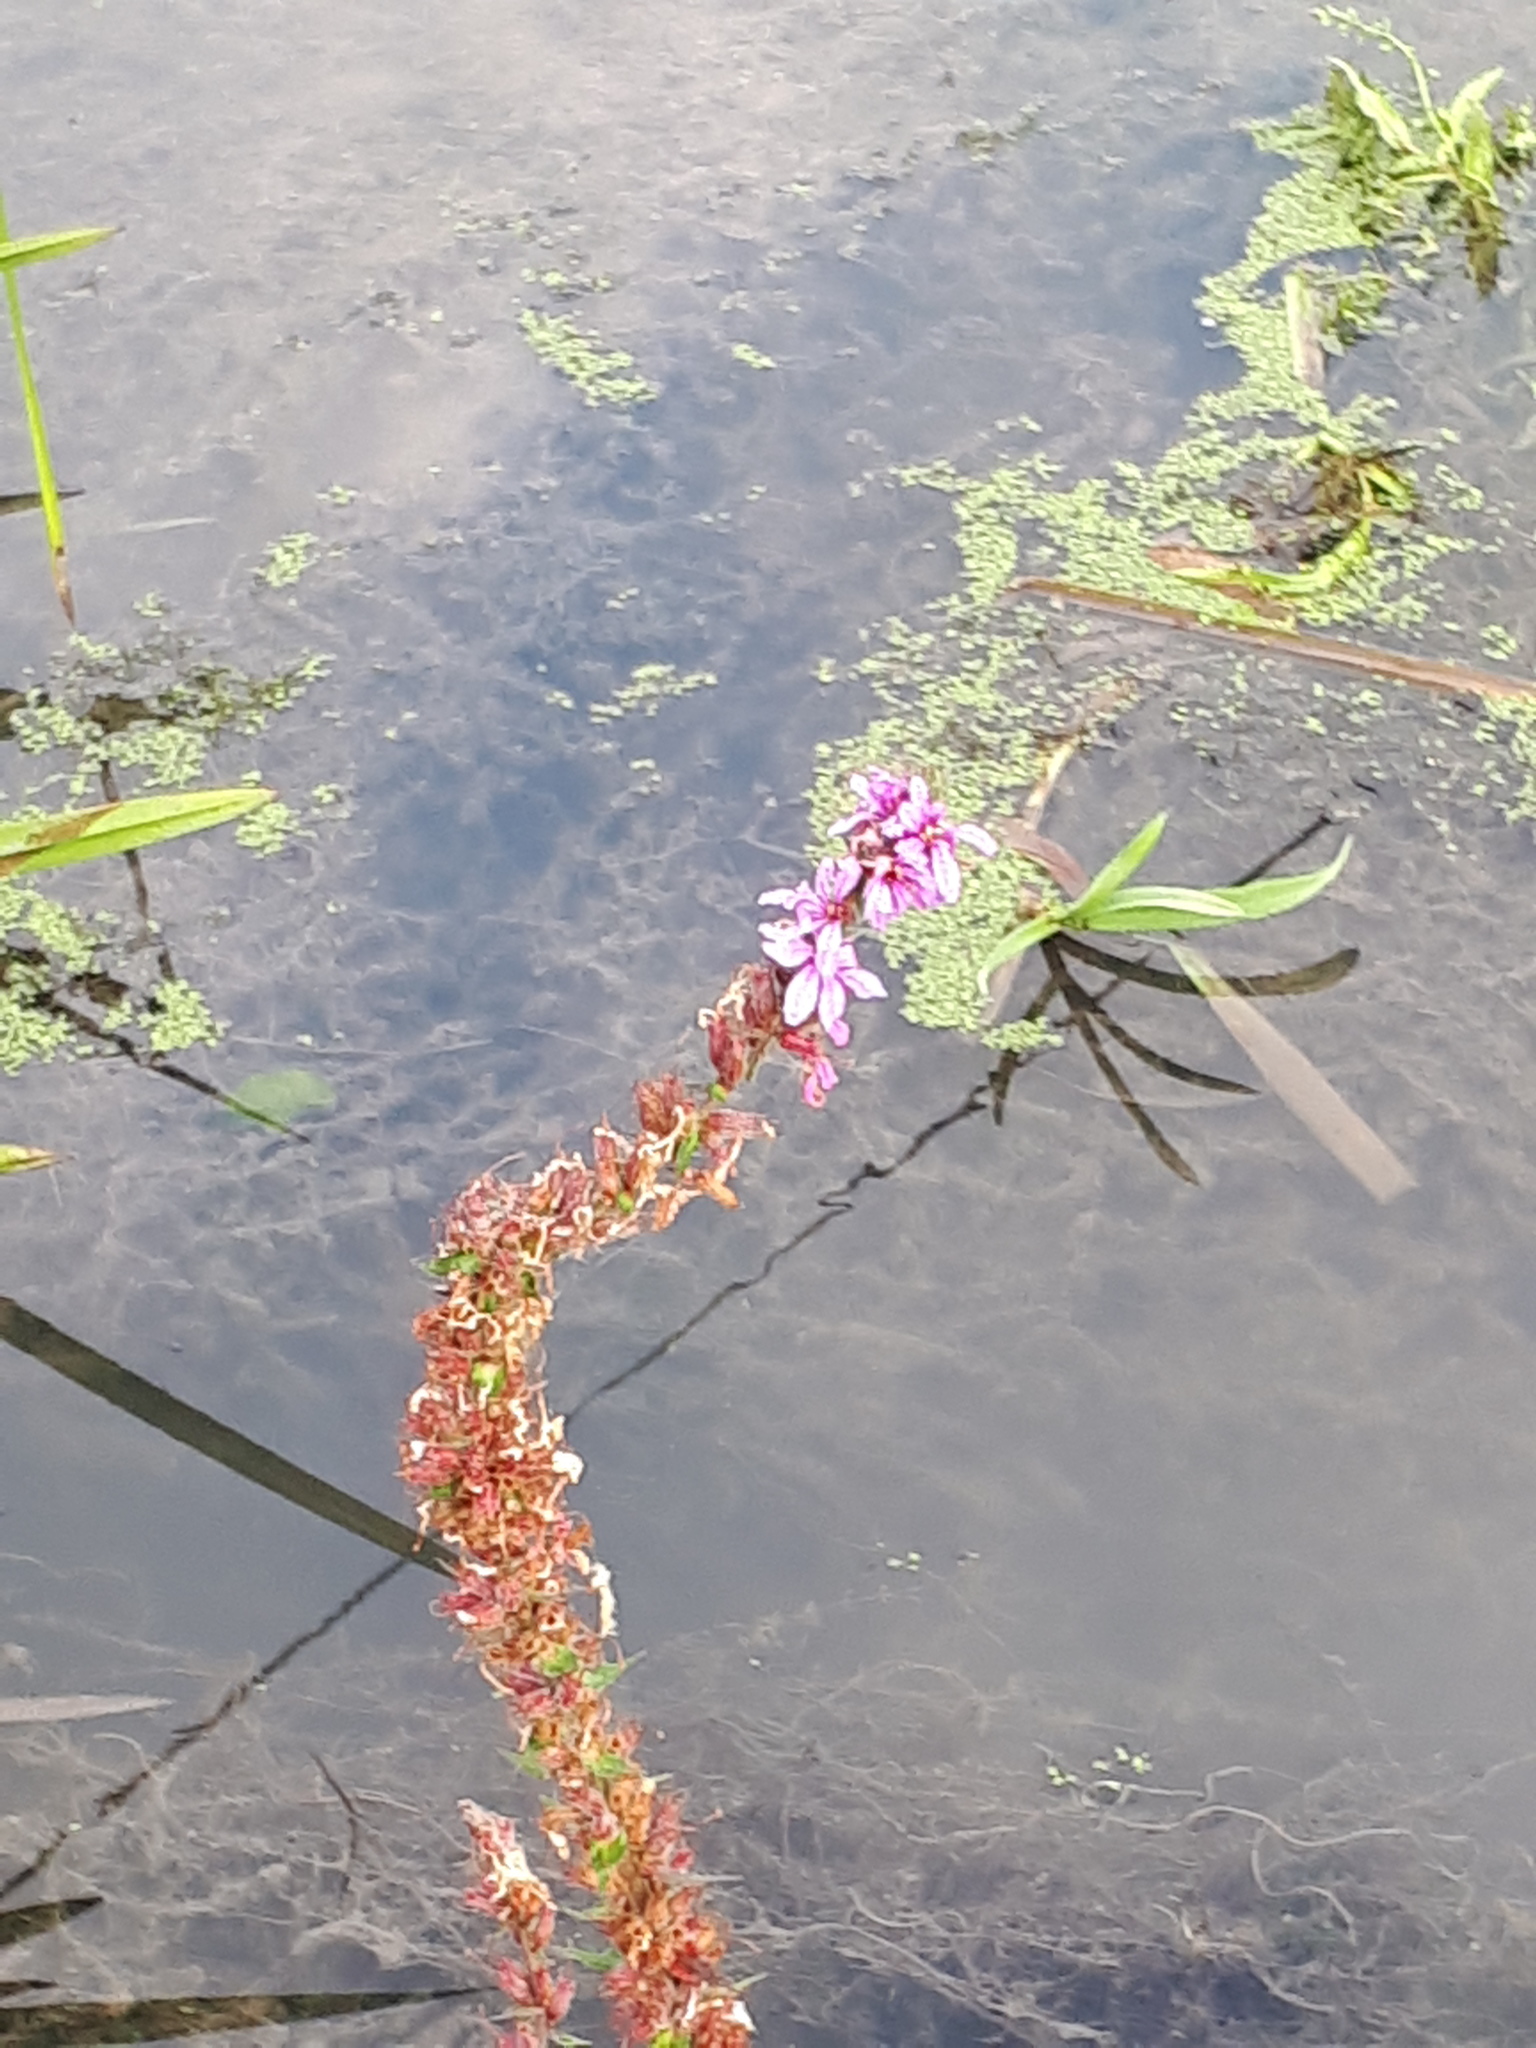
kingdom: Plantae
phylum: Tracheophyta
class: Magnoliopsida
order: Myrtales
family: Lythraceae
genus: Lythrum
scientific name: Lythrum salicaria
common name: Purple loosestrife
